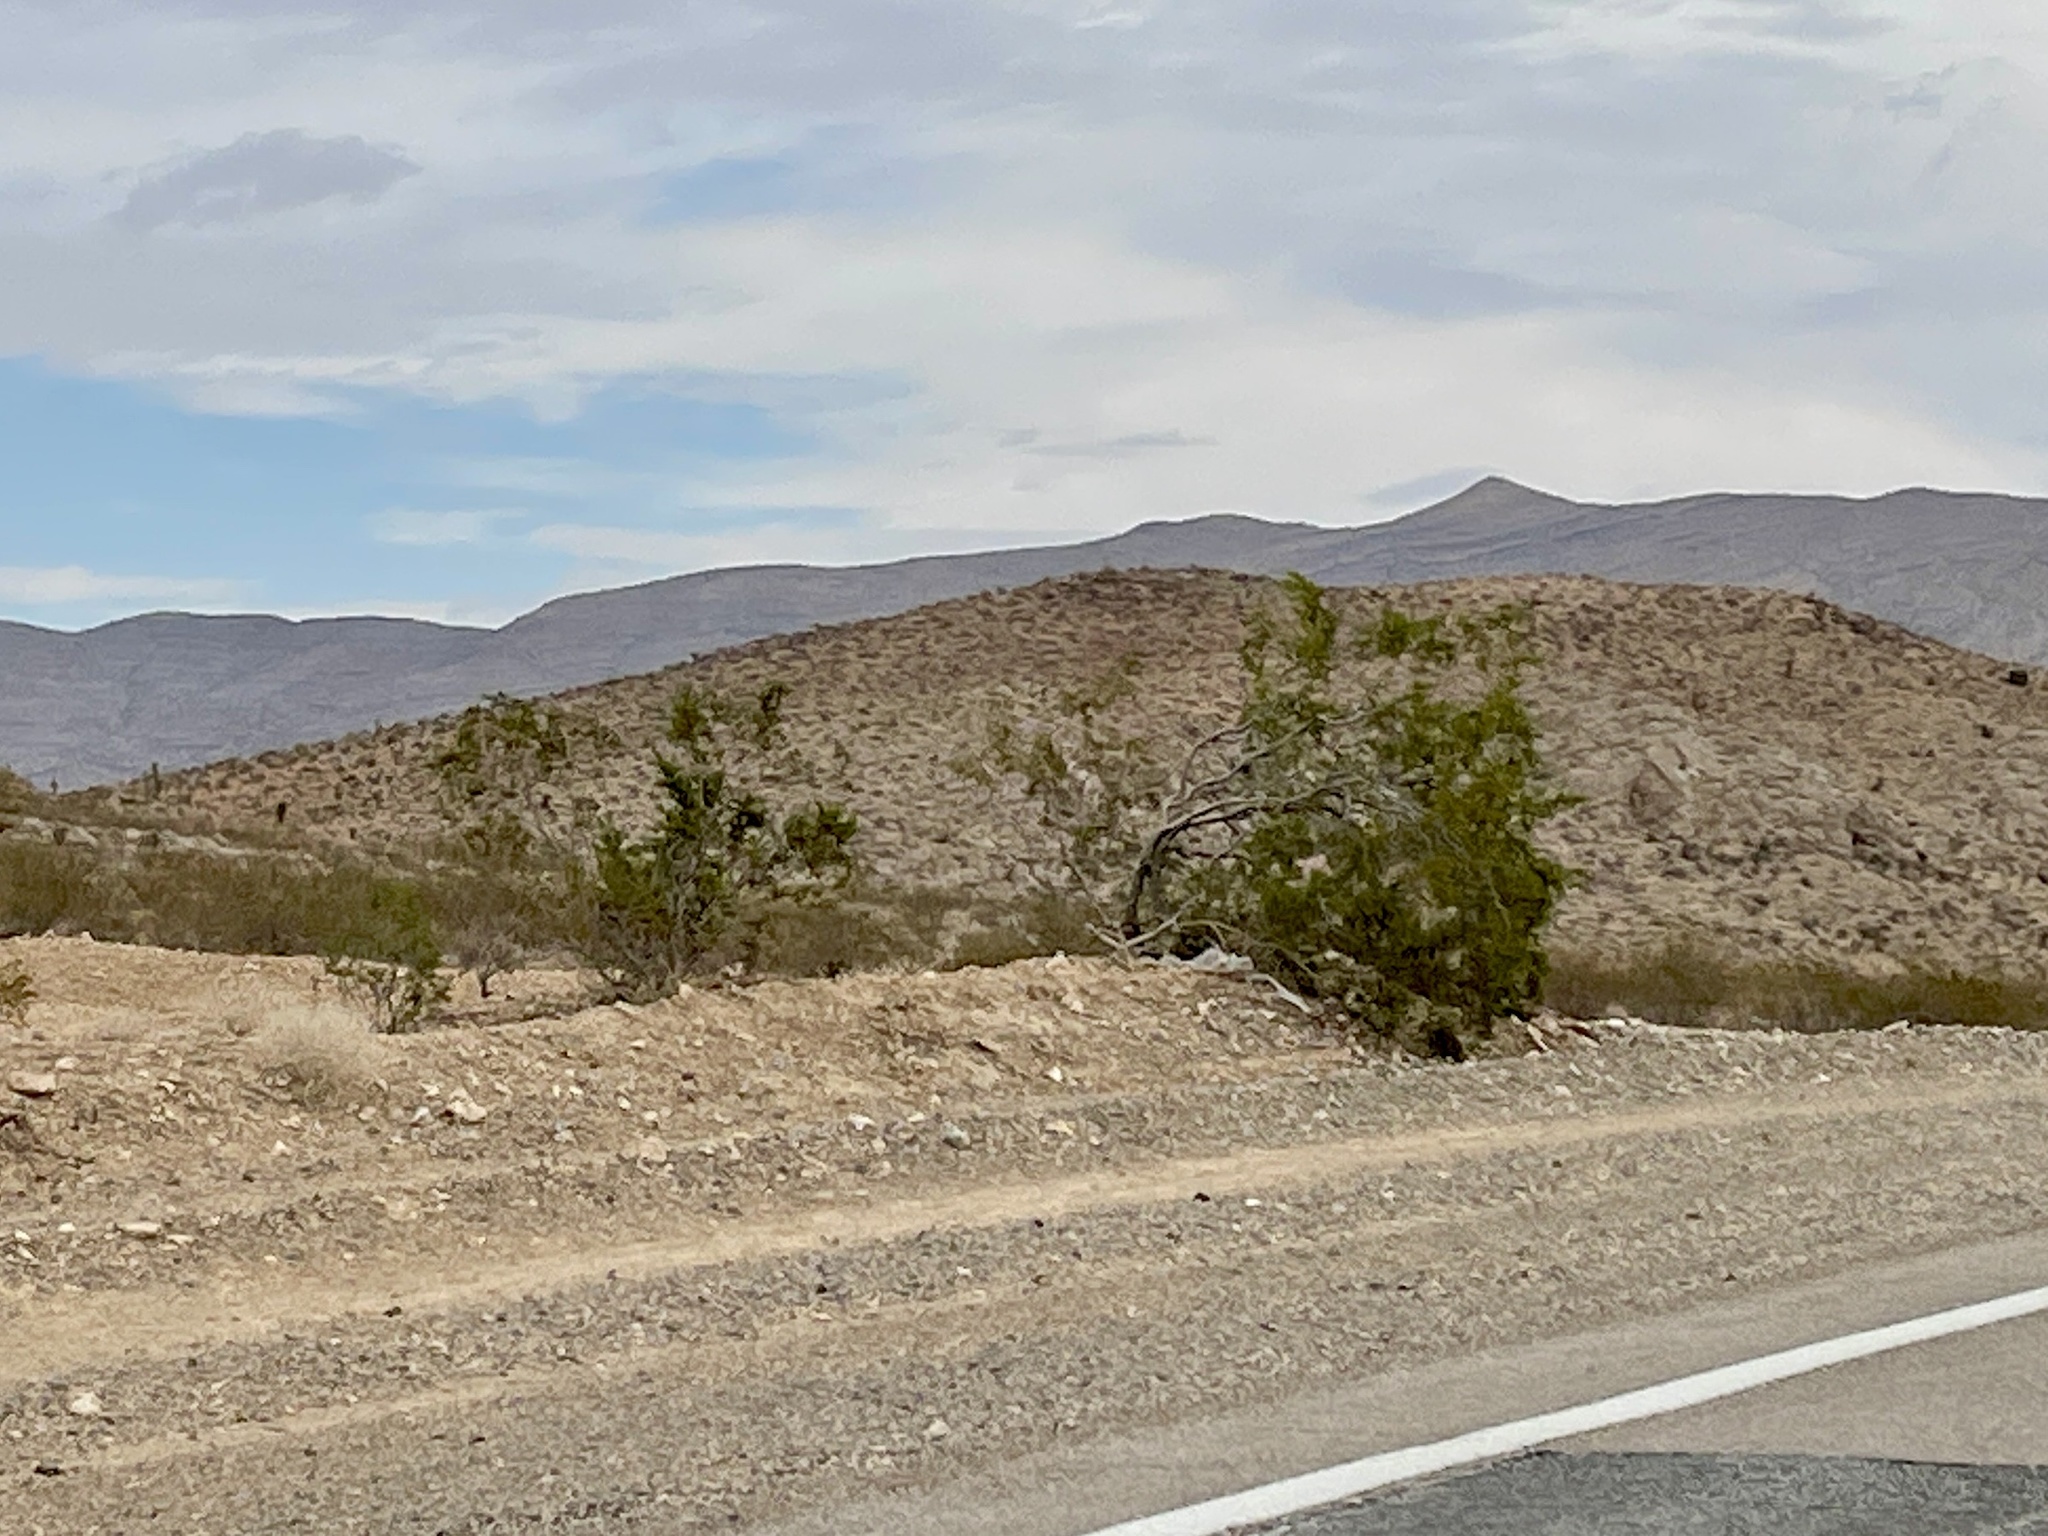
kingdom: Plantae
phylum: Tracheophyta
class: Magnoliopsida
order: Zygophyllales
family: Zygophyllaceae
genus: Larrea
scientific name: Larrea tridentata
